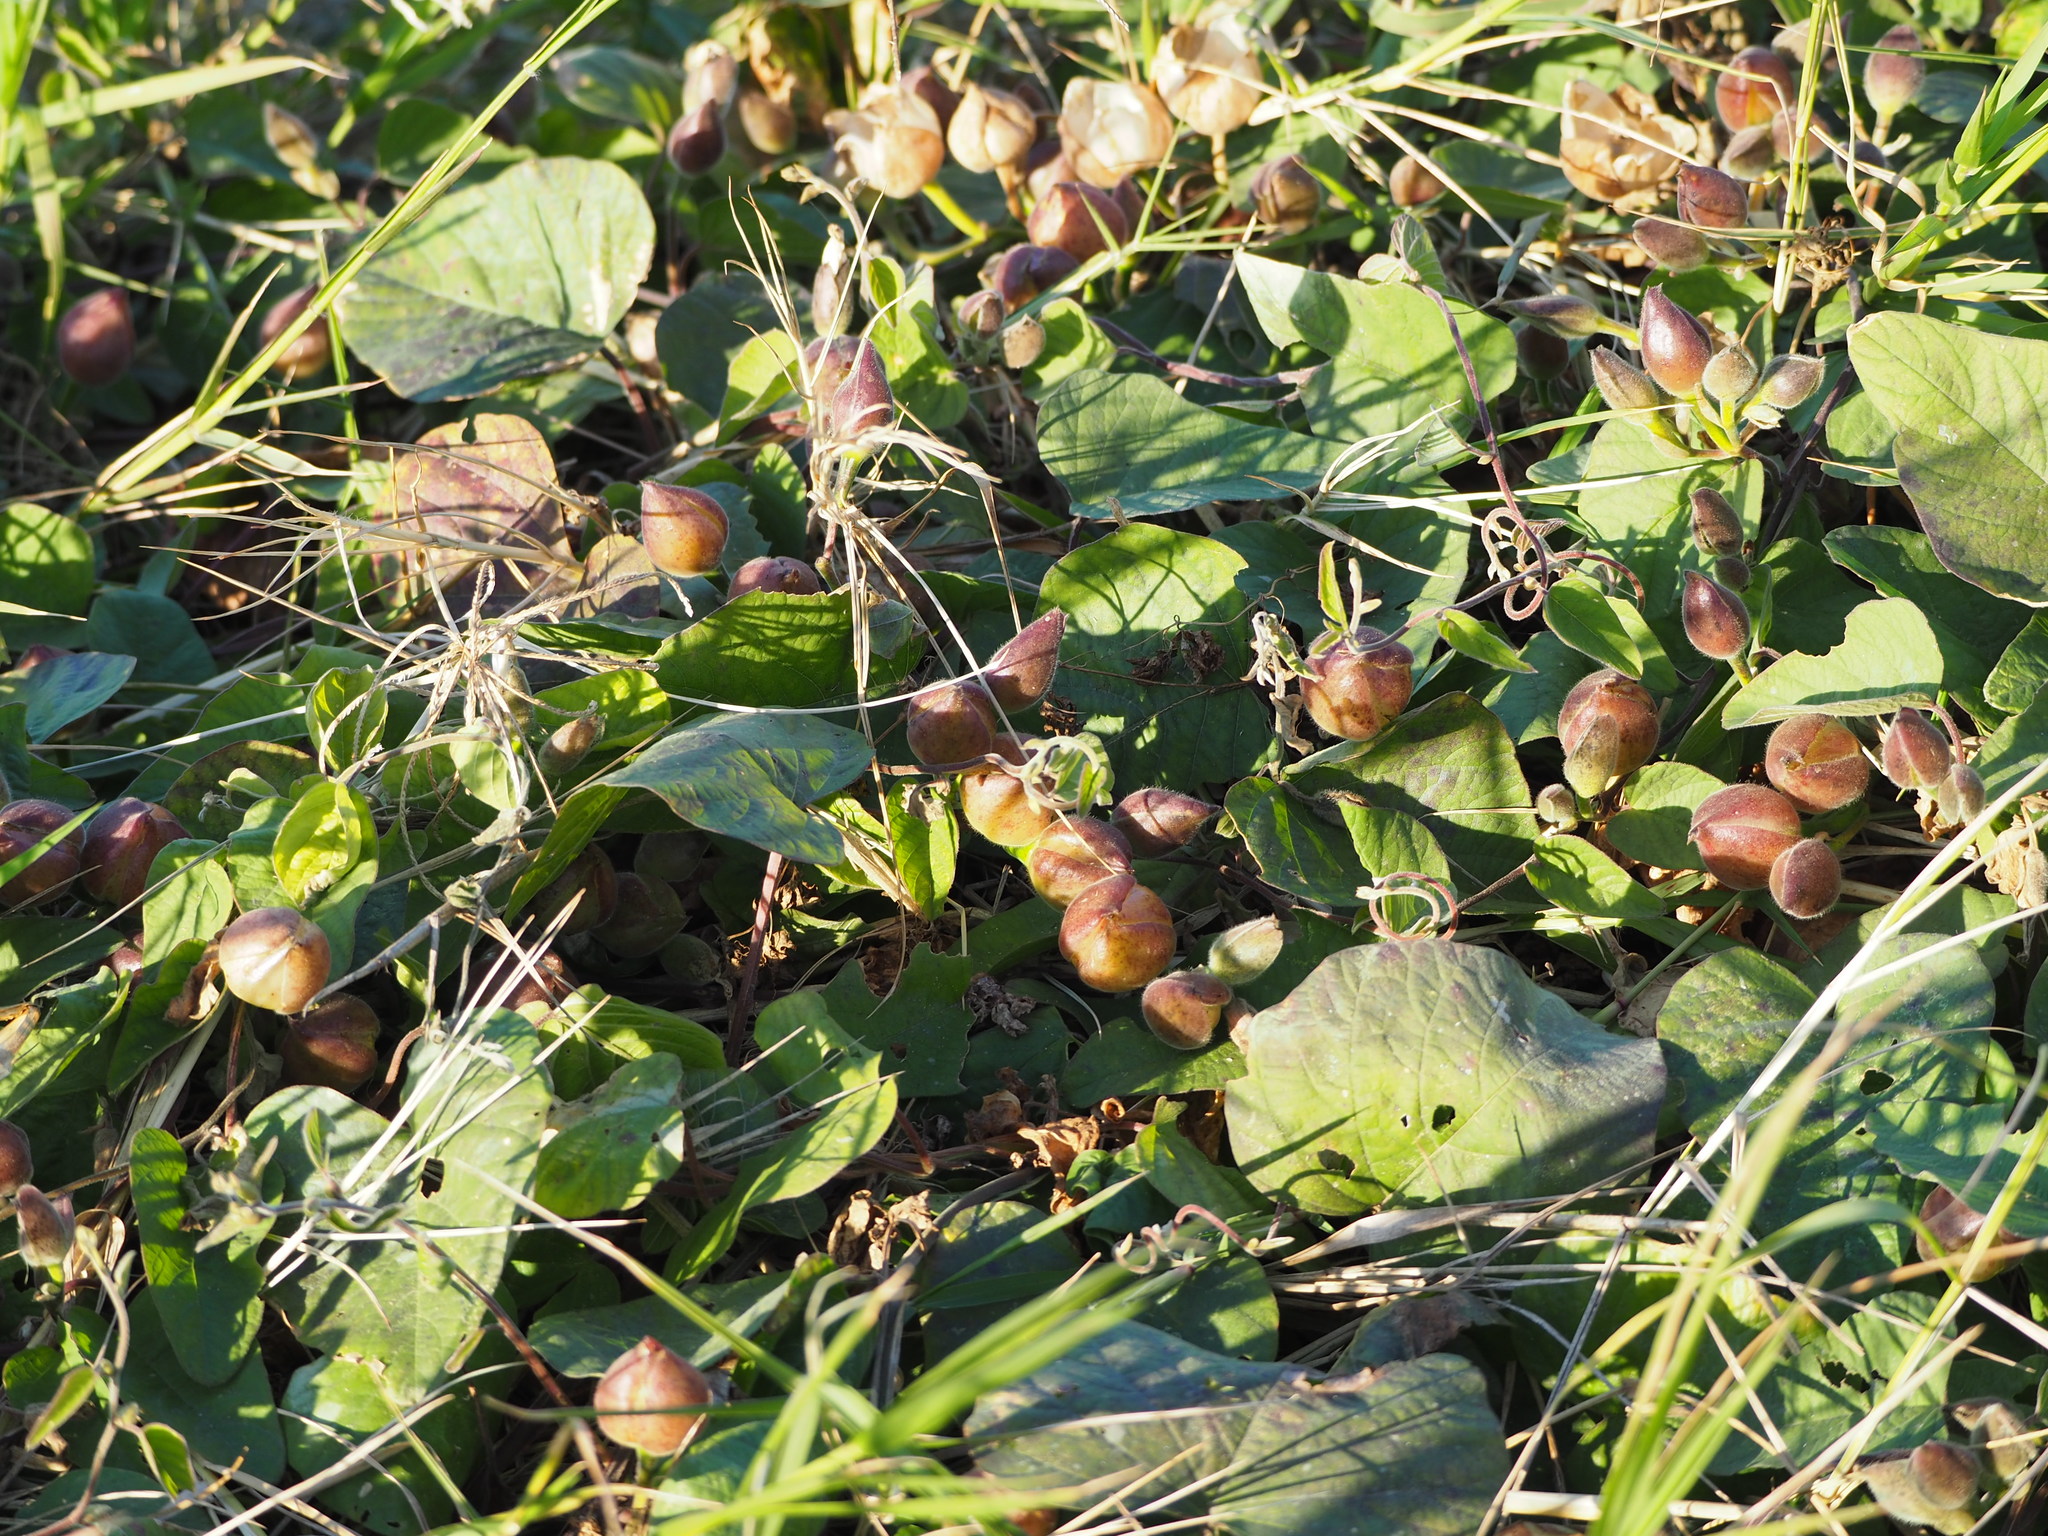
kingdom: Plantae
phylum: Tracheophyta
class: Magnoliopsida
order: Solanales
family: Convolvulaceae
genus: Operculina
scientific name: Operculina turpethum
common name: Transparent wood-rose
